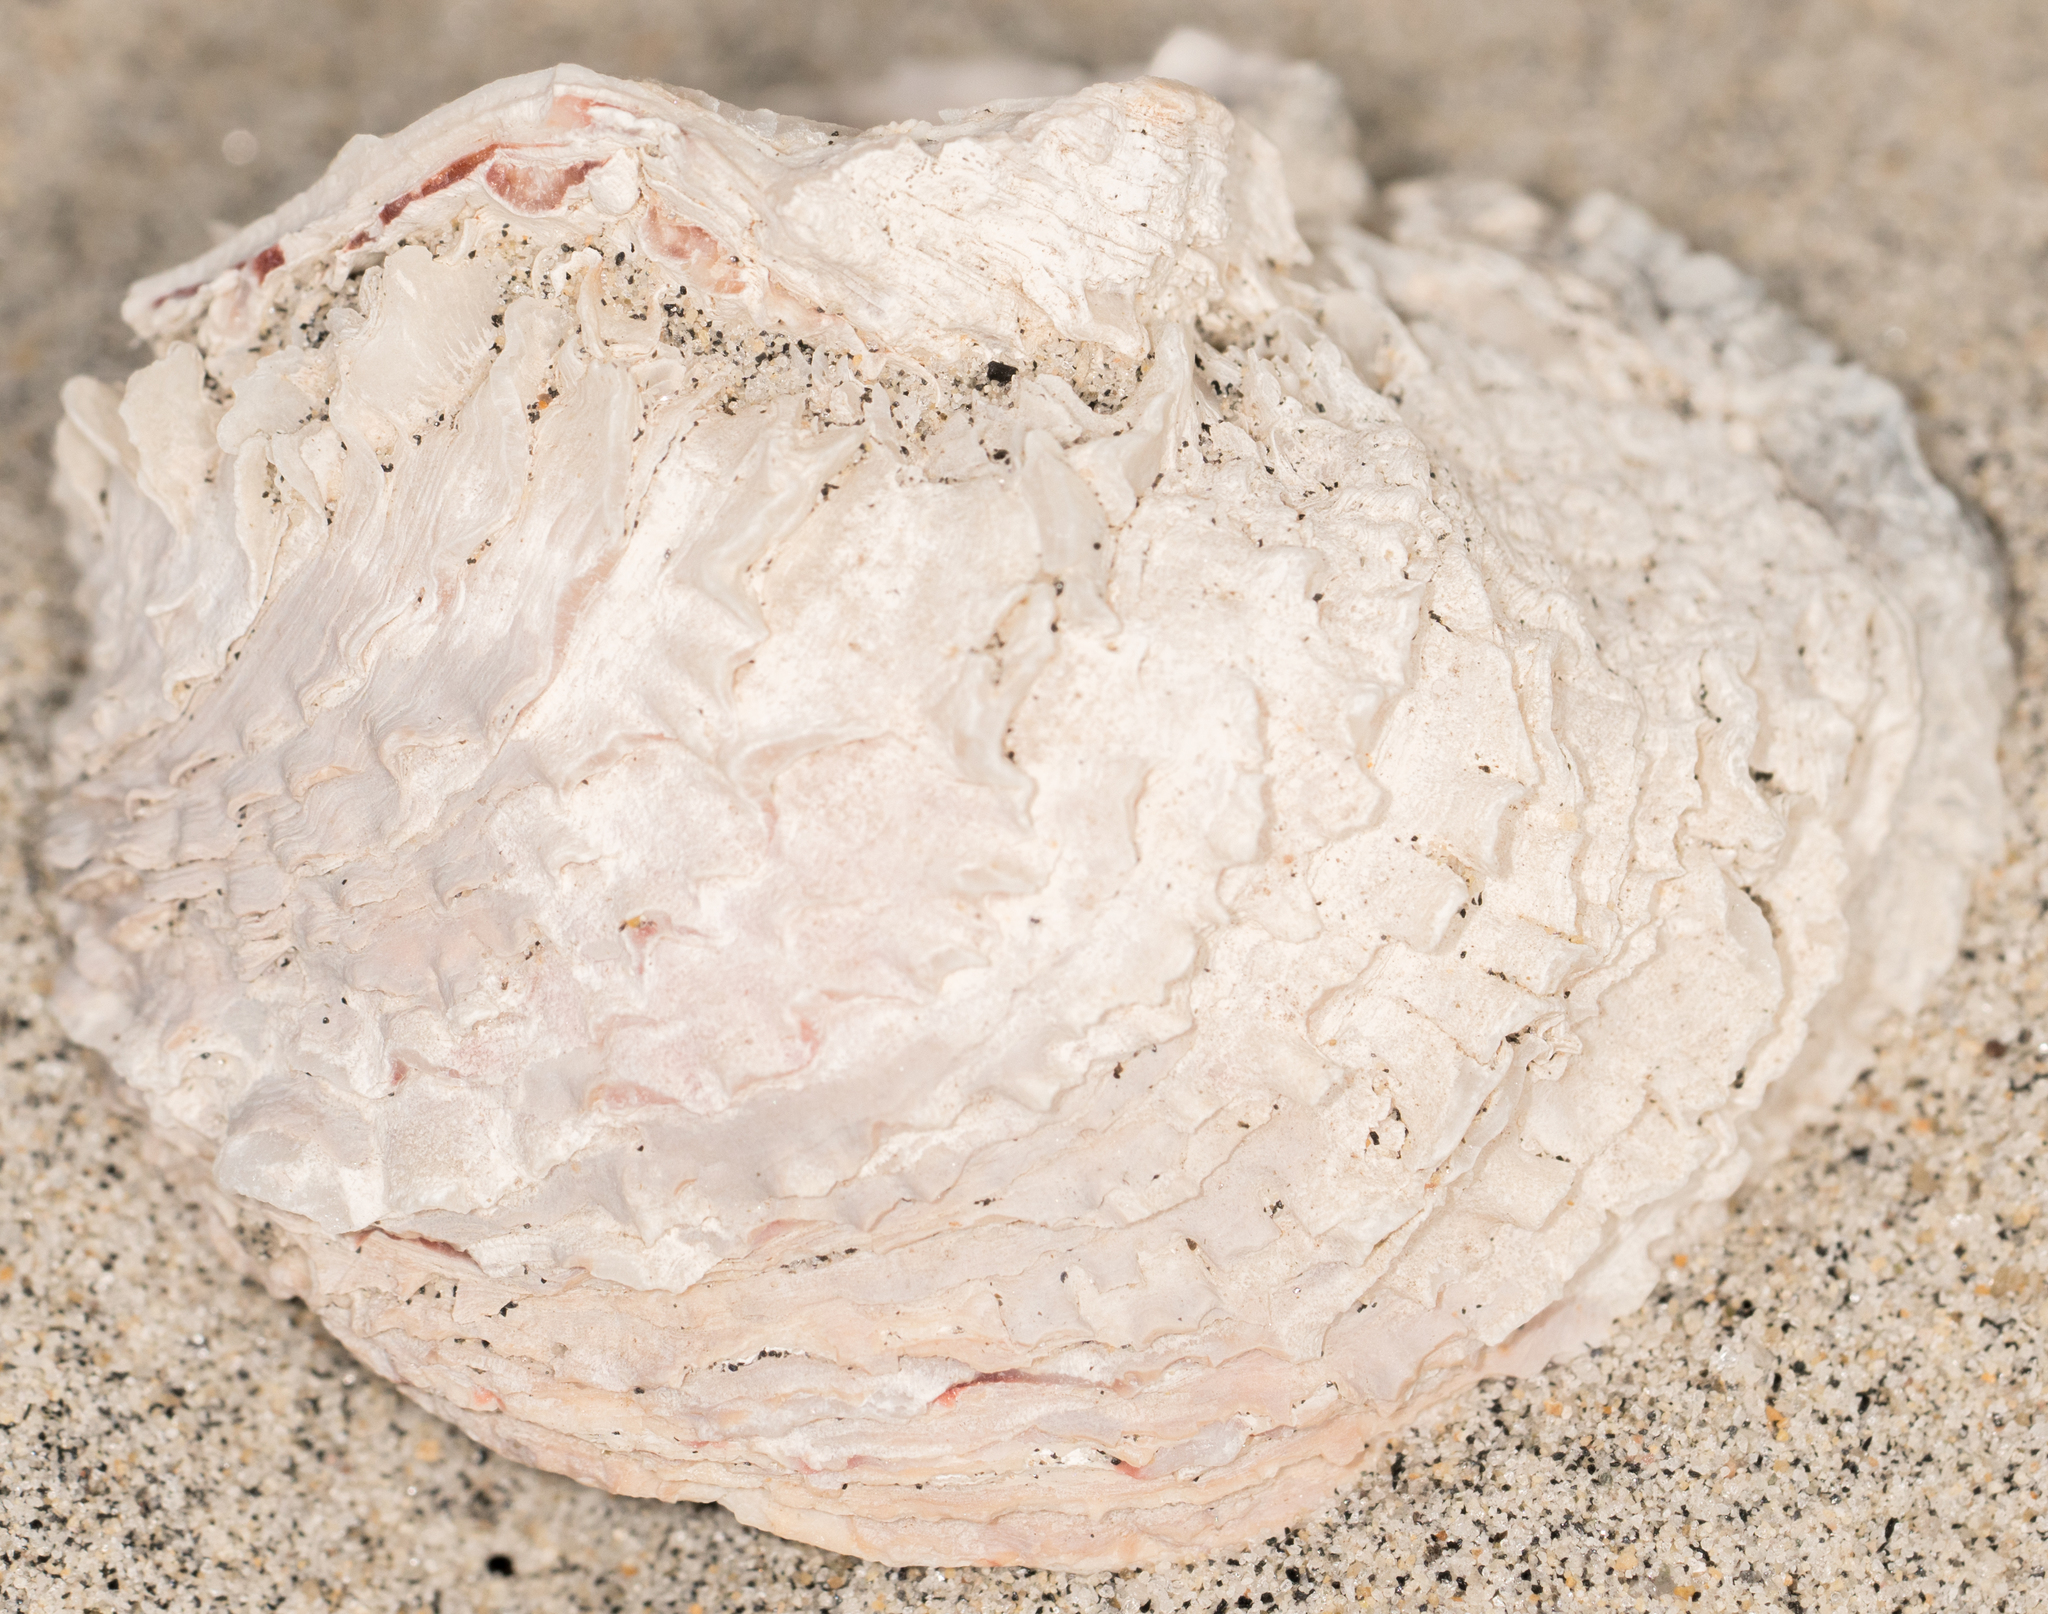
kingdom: Animalia
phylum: Mollusca
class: Bivalvia
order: Venerida
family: Chamidae
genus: Pseudochama
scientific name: Pseudochama exogyra
